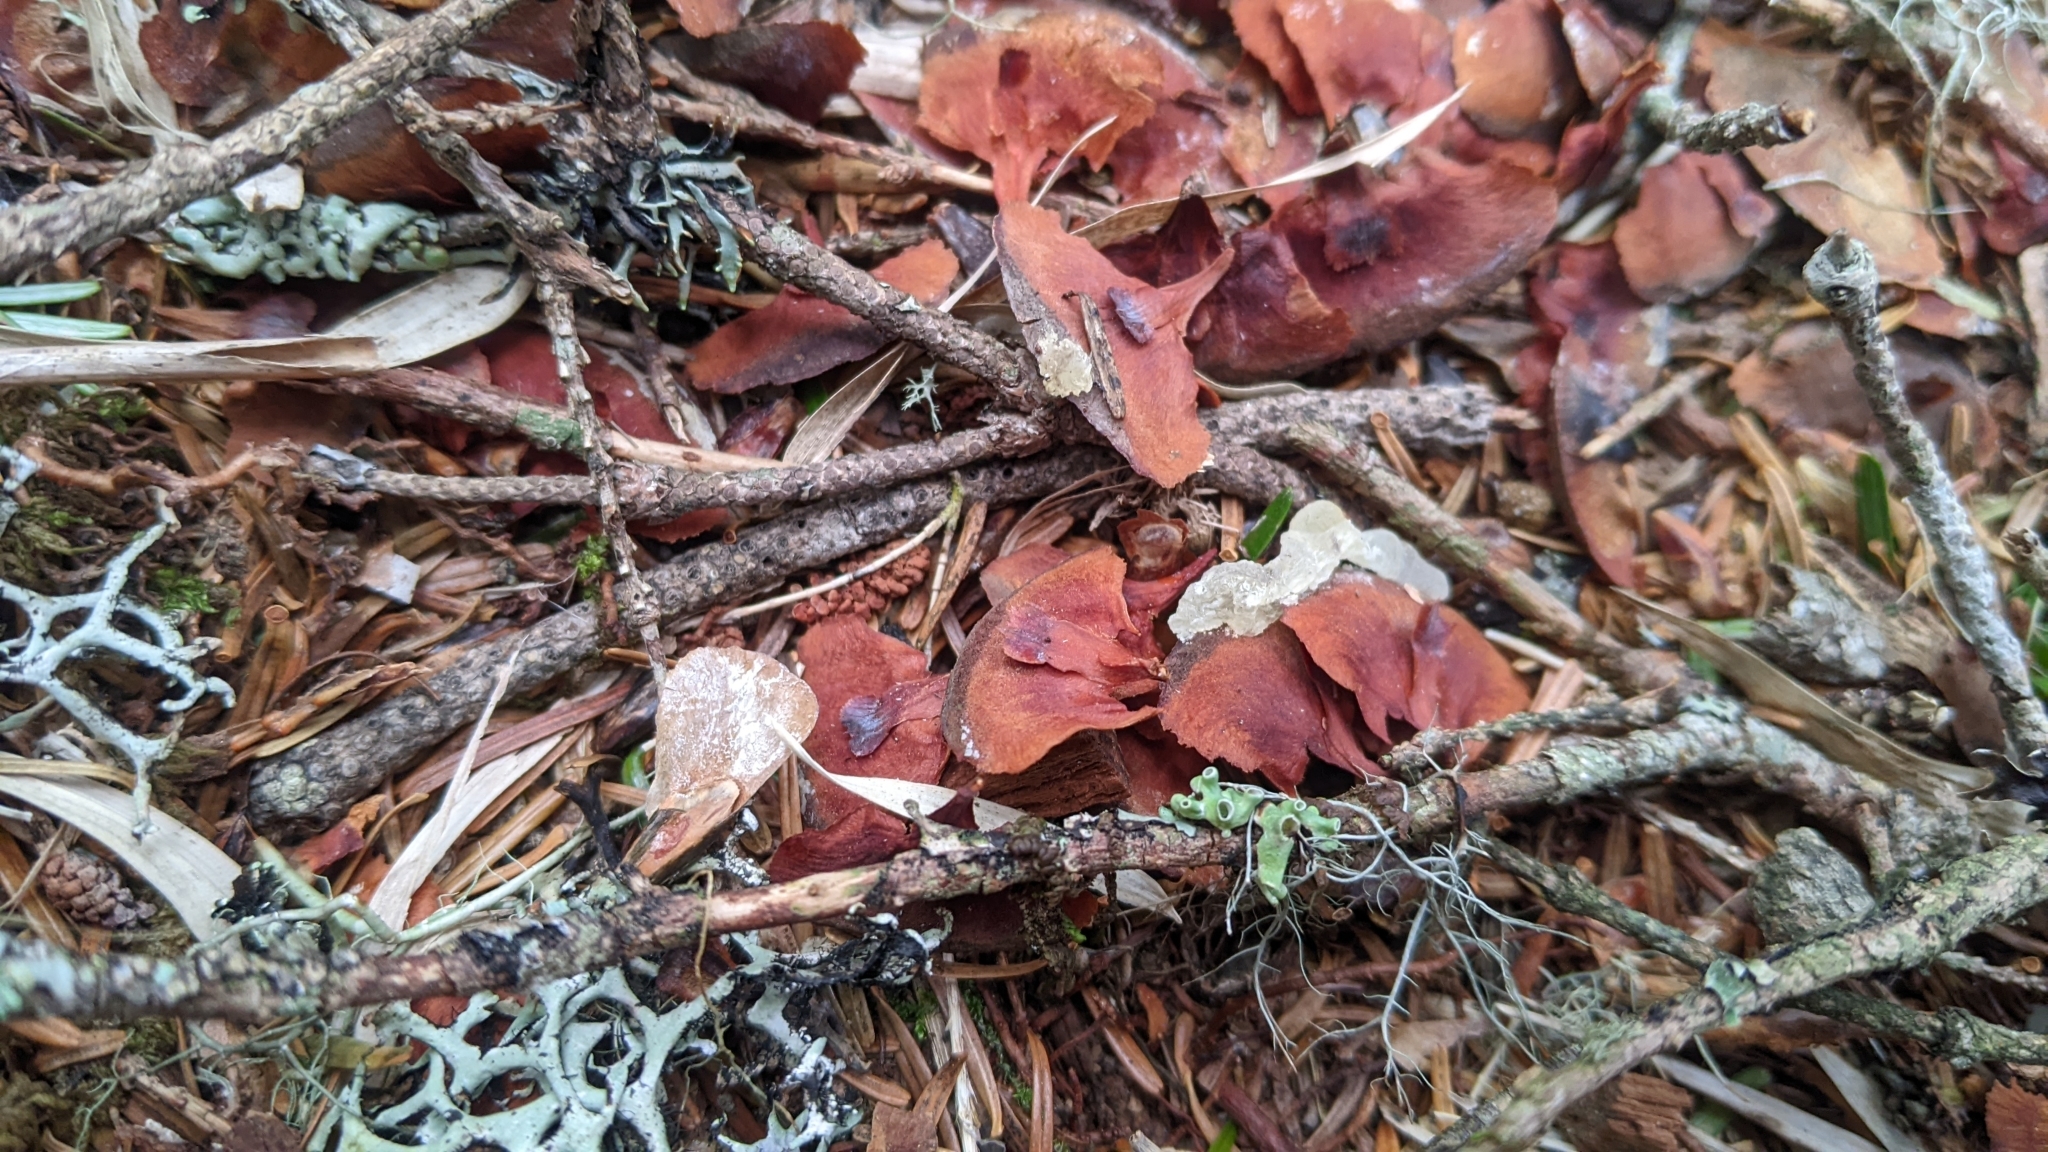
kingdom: Plantae
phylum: Tracheophyta
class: Pinopsida
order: Pinales
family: Pinaceae
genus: Abies
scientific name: Abies kawakamii
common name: Taiwan fir
